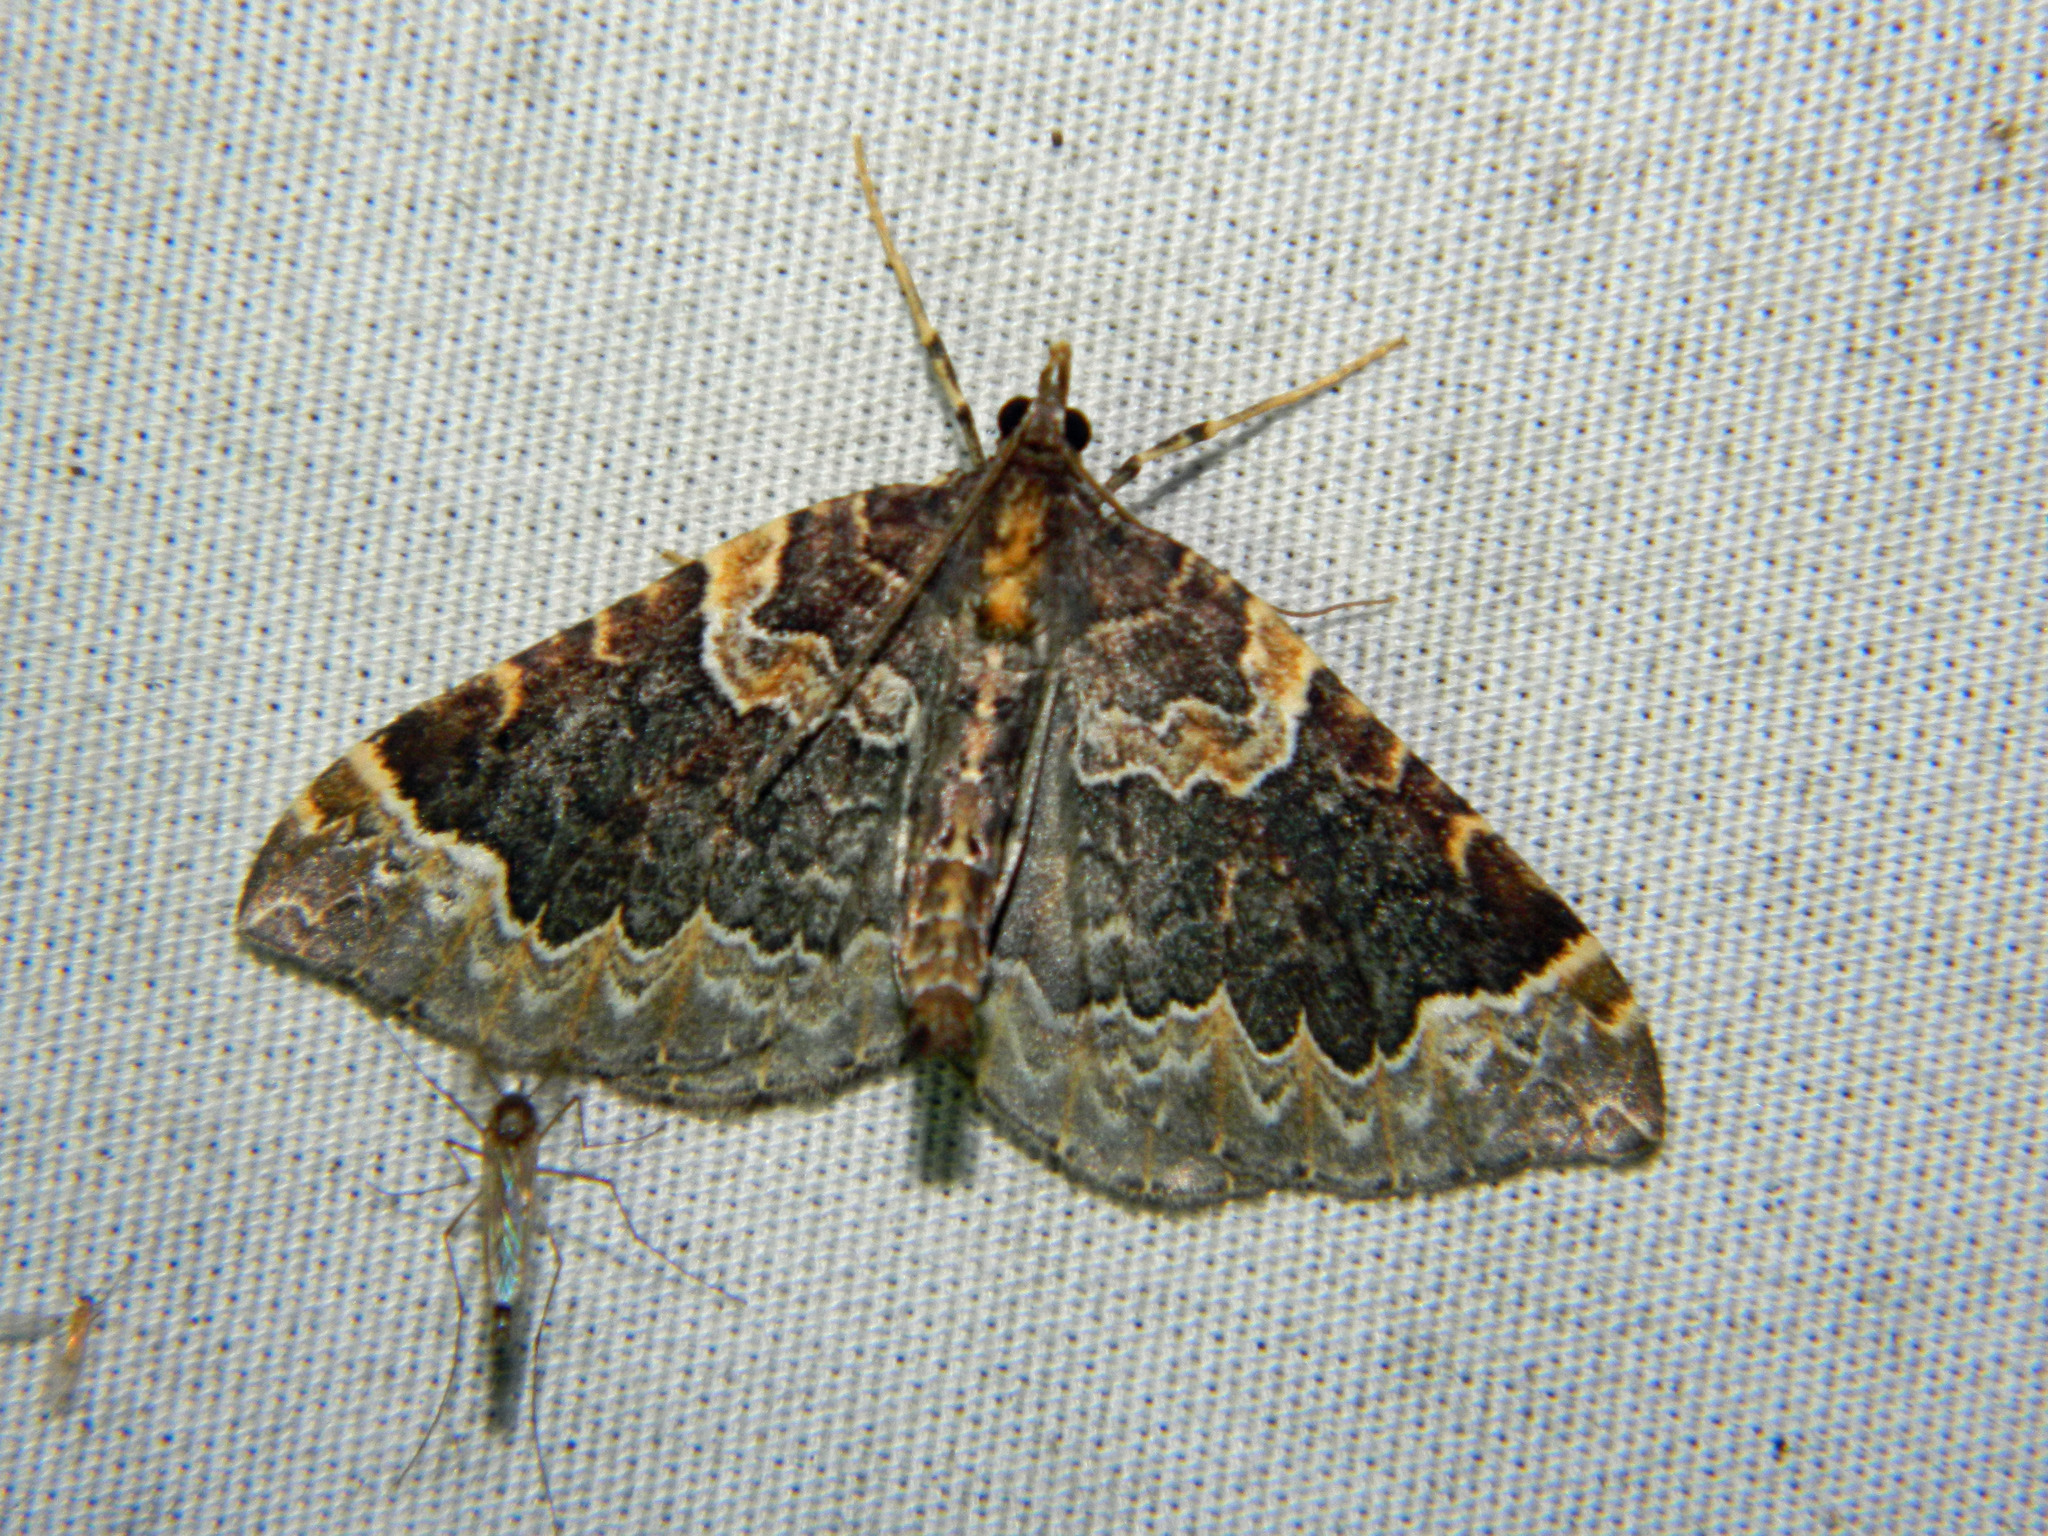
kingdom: Animalia
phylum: Arthropoda
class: Insecta
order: Lepidoptera
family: Geometridae
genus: Eulithis
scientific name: Eulithis flavibrunneata
